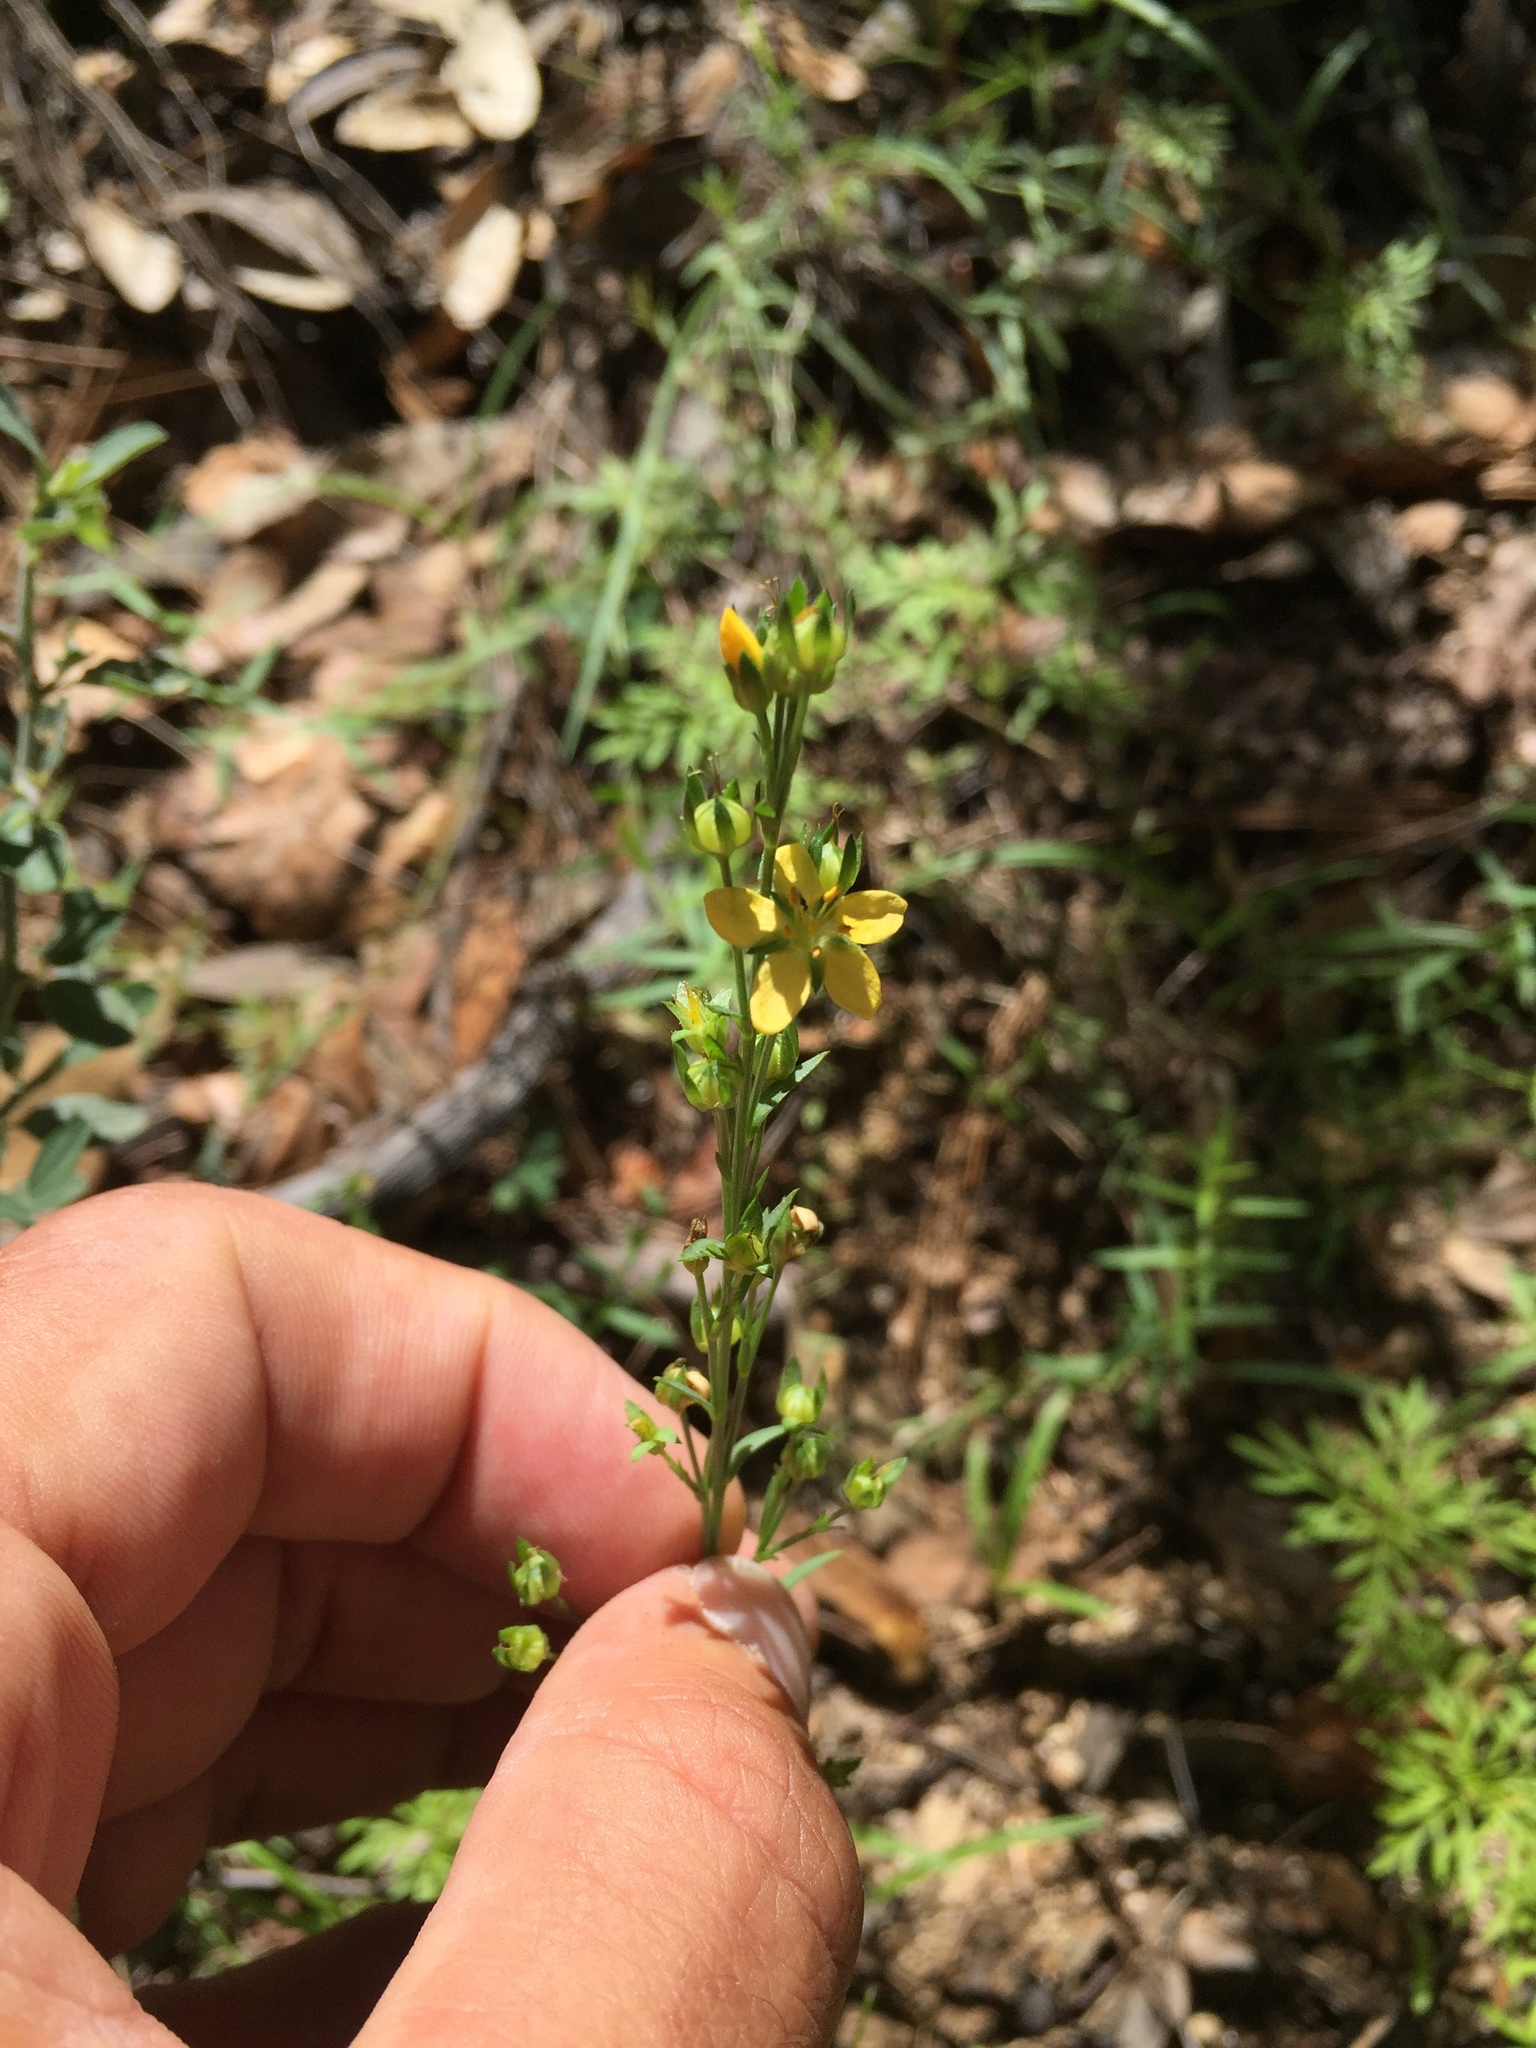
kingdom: Plantae
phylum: Tracheophyta
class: Magnoliopsida
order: Malpighiales
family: Linaceae
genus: Linum
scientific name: Linum neomexicanum
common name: New mexico yellow flax
